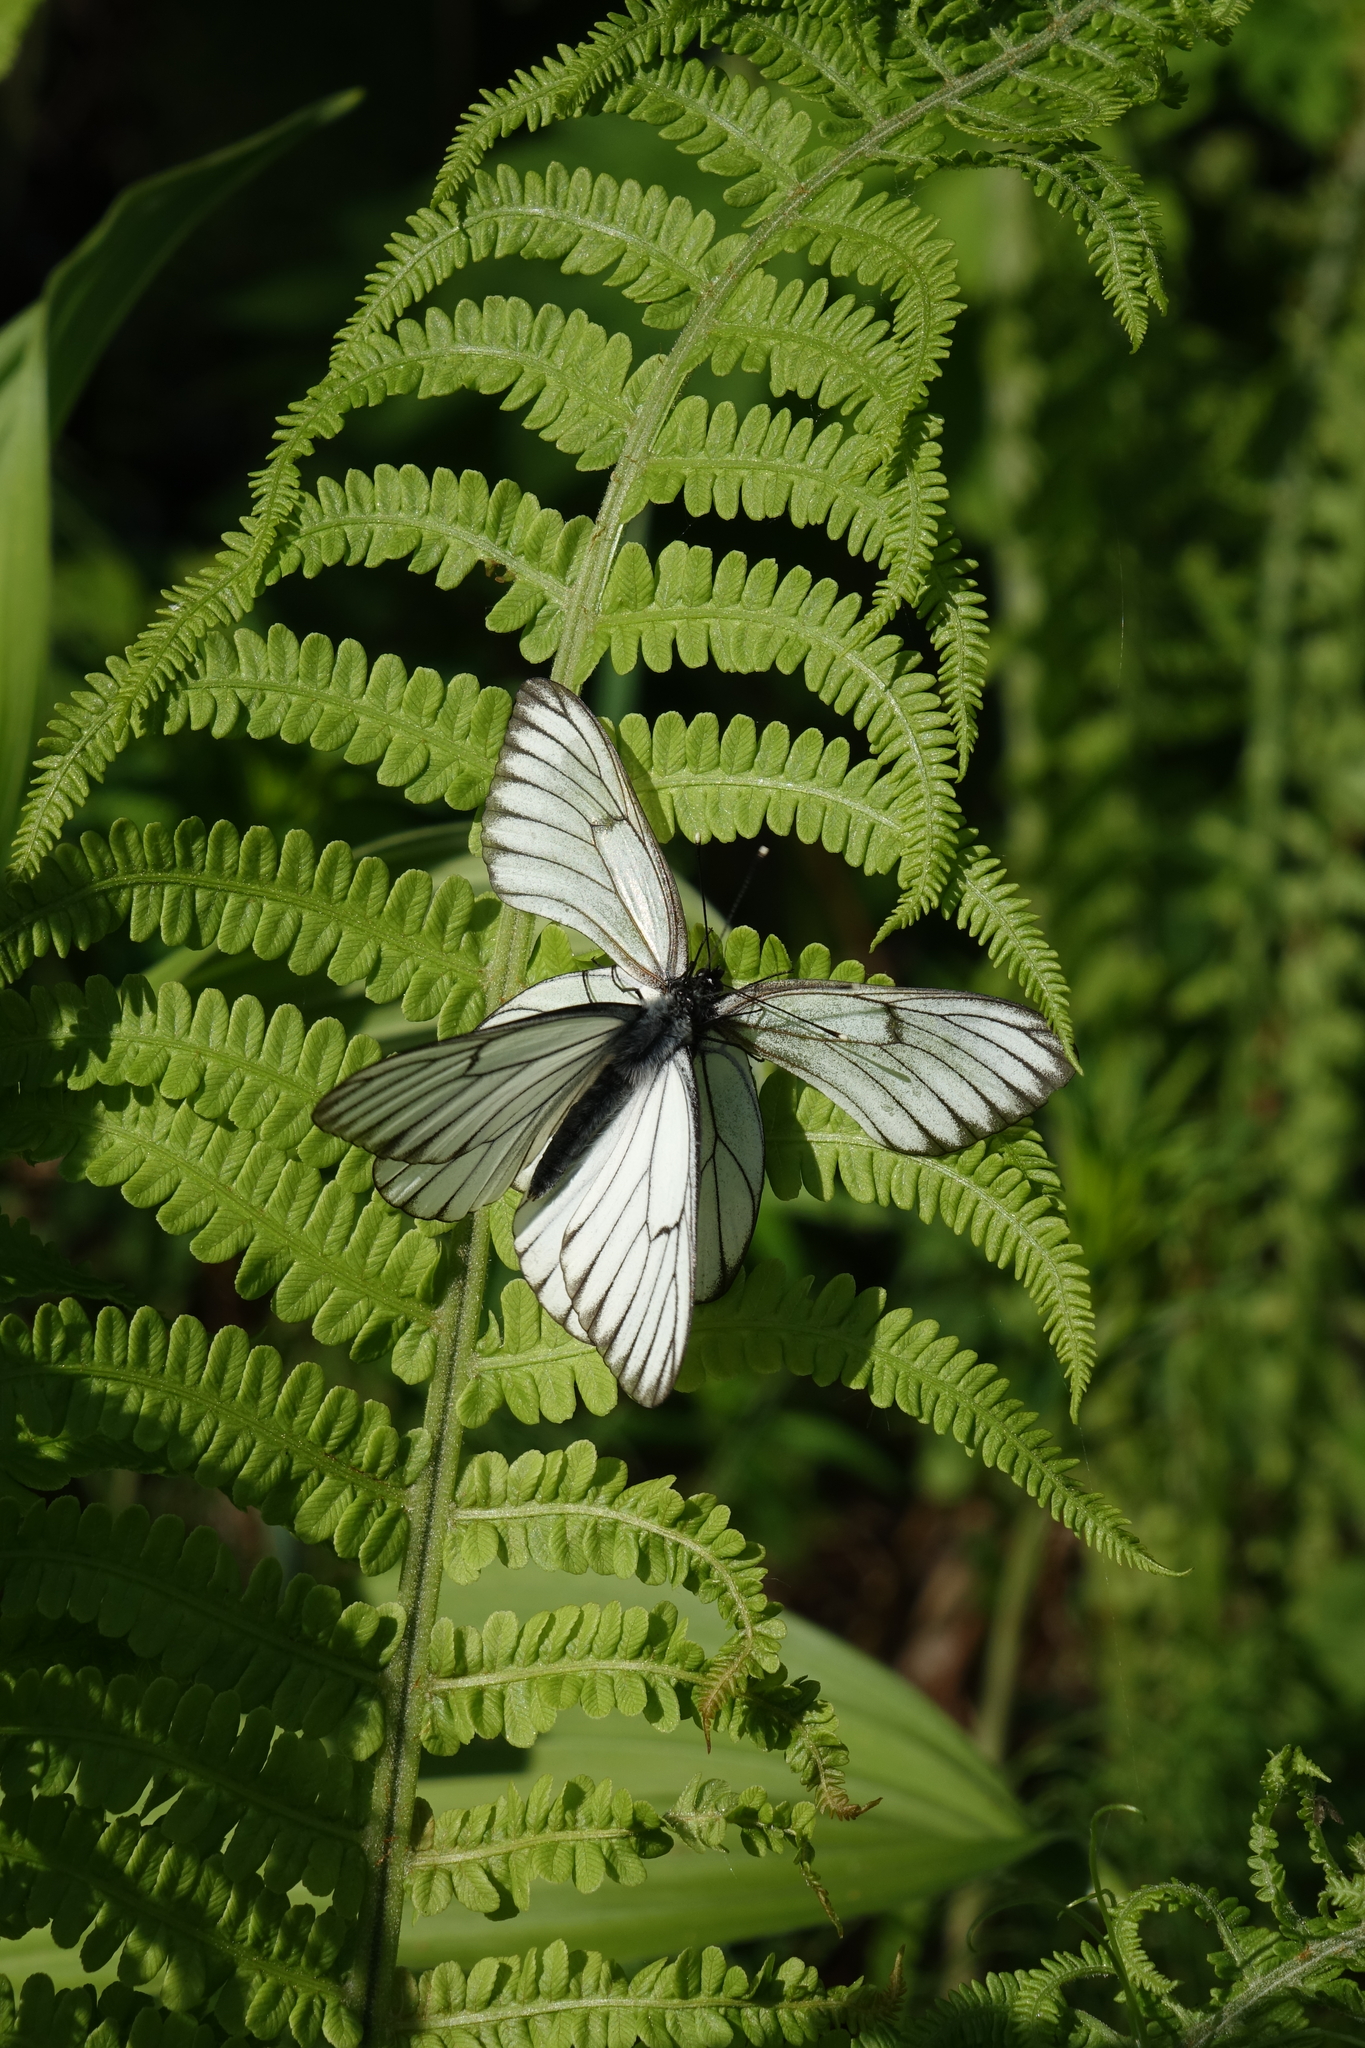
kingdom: Animalia
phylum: Arthropoda
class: Insecta
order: Lepidoptera
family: Pieridae
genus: Aporia
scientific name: Aporia crataegi
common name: Black-veined white
